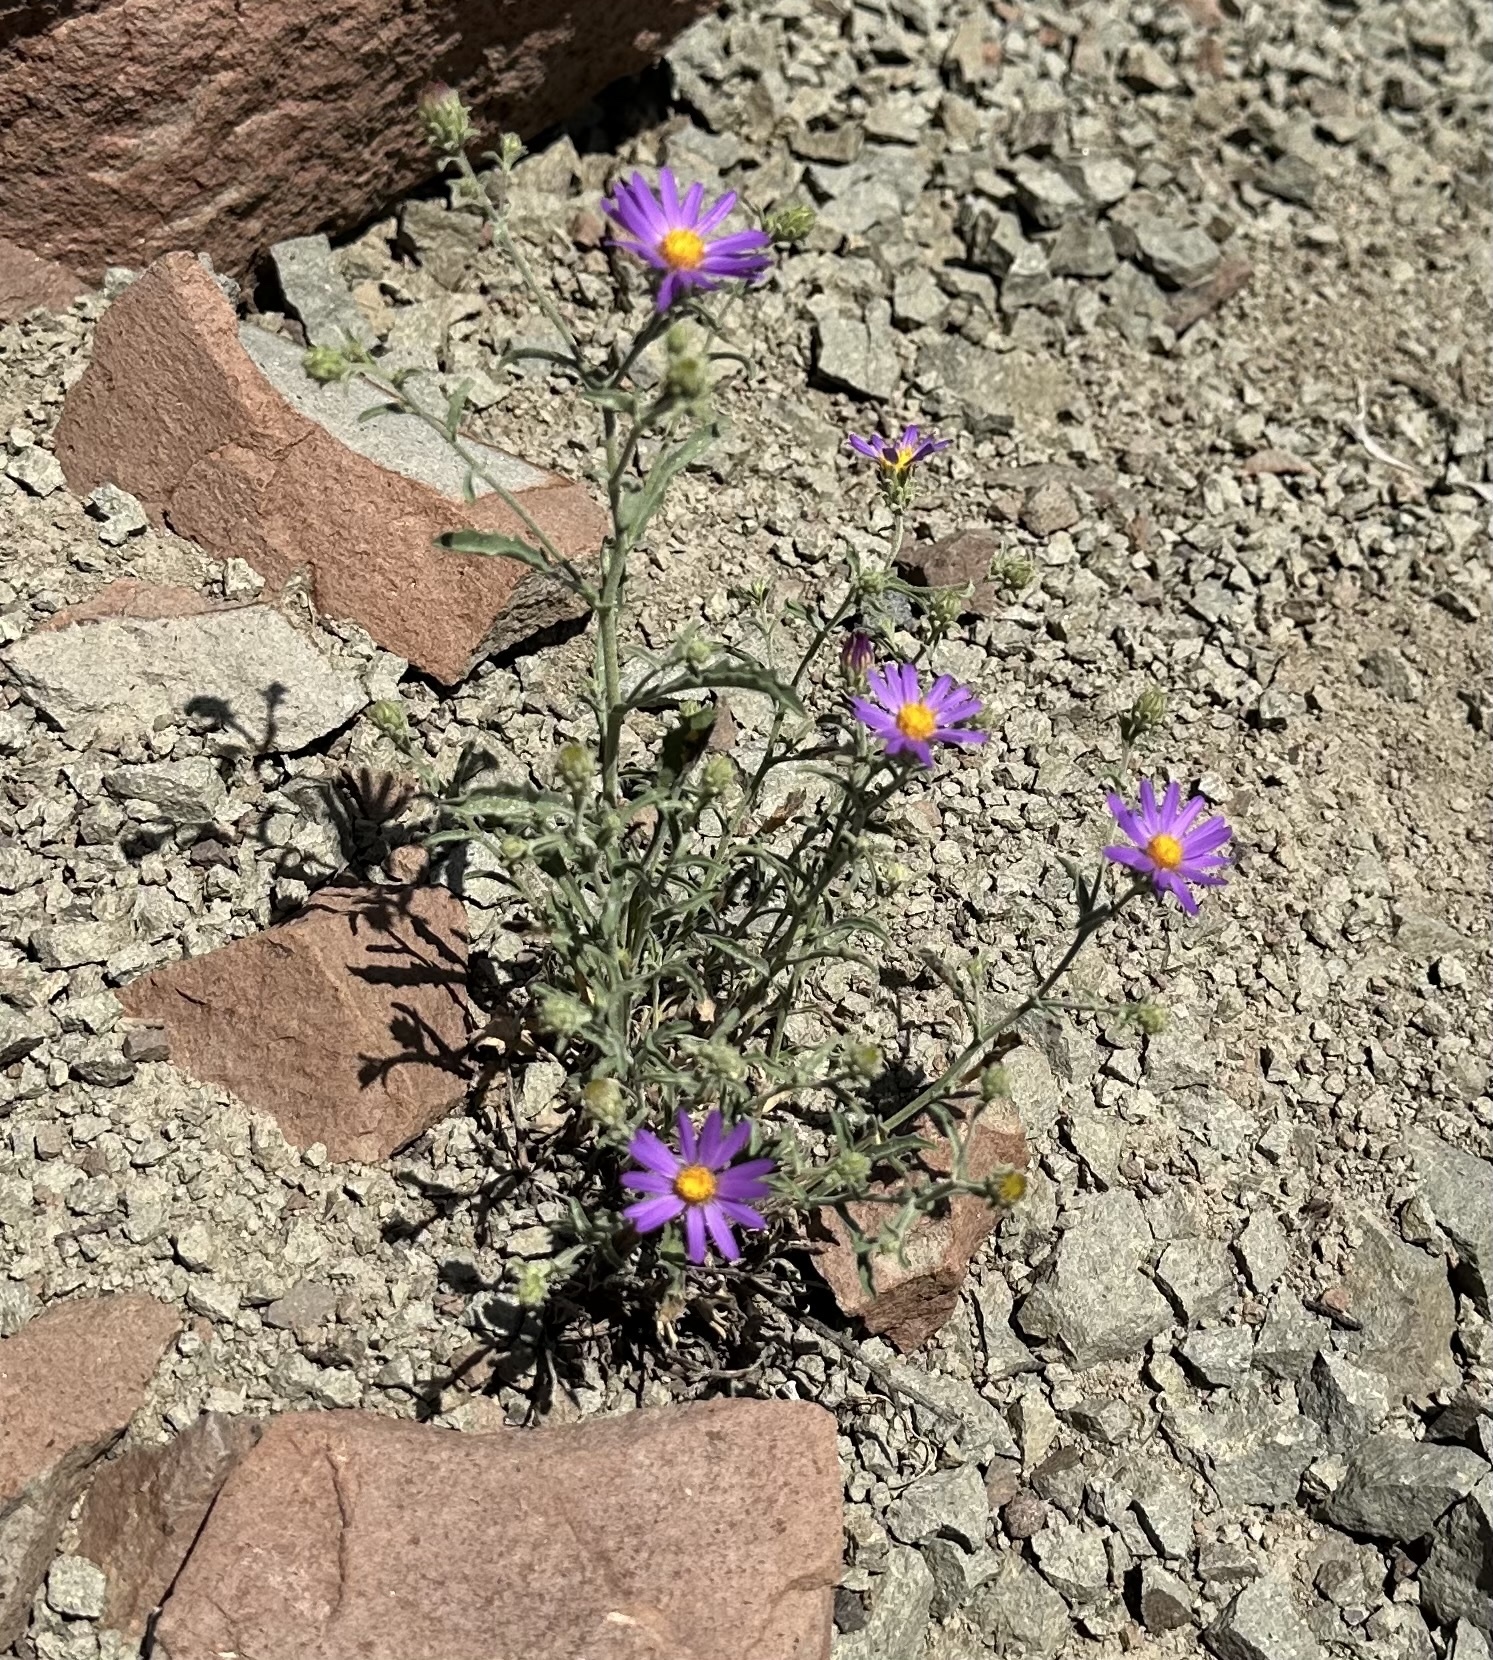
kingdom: Plantae
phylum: Tracheophyta
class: Magnoliopsida
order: Asterales
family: Asteraceae
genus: Dieteria
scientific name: Dieteria canescens
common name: Hoary-aster
